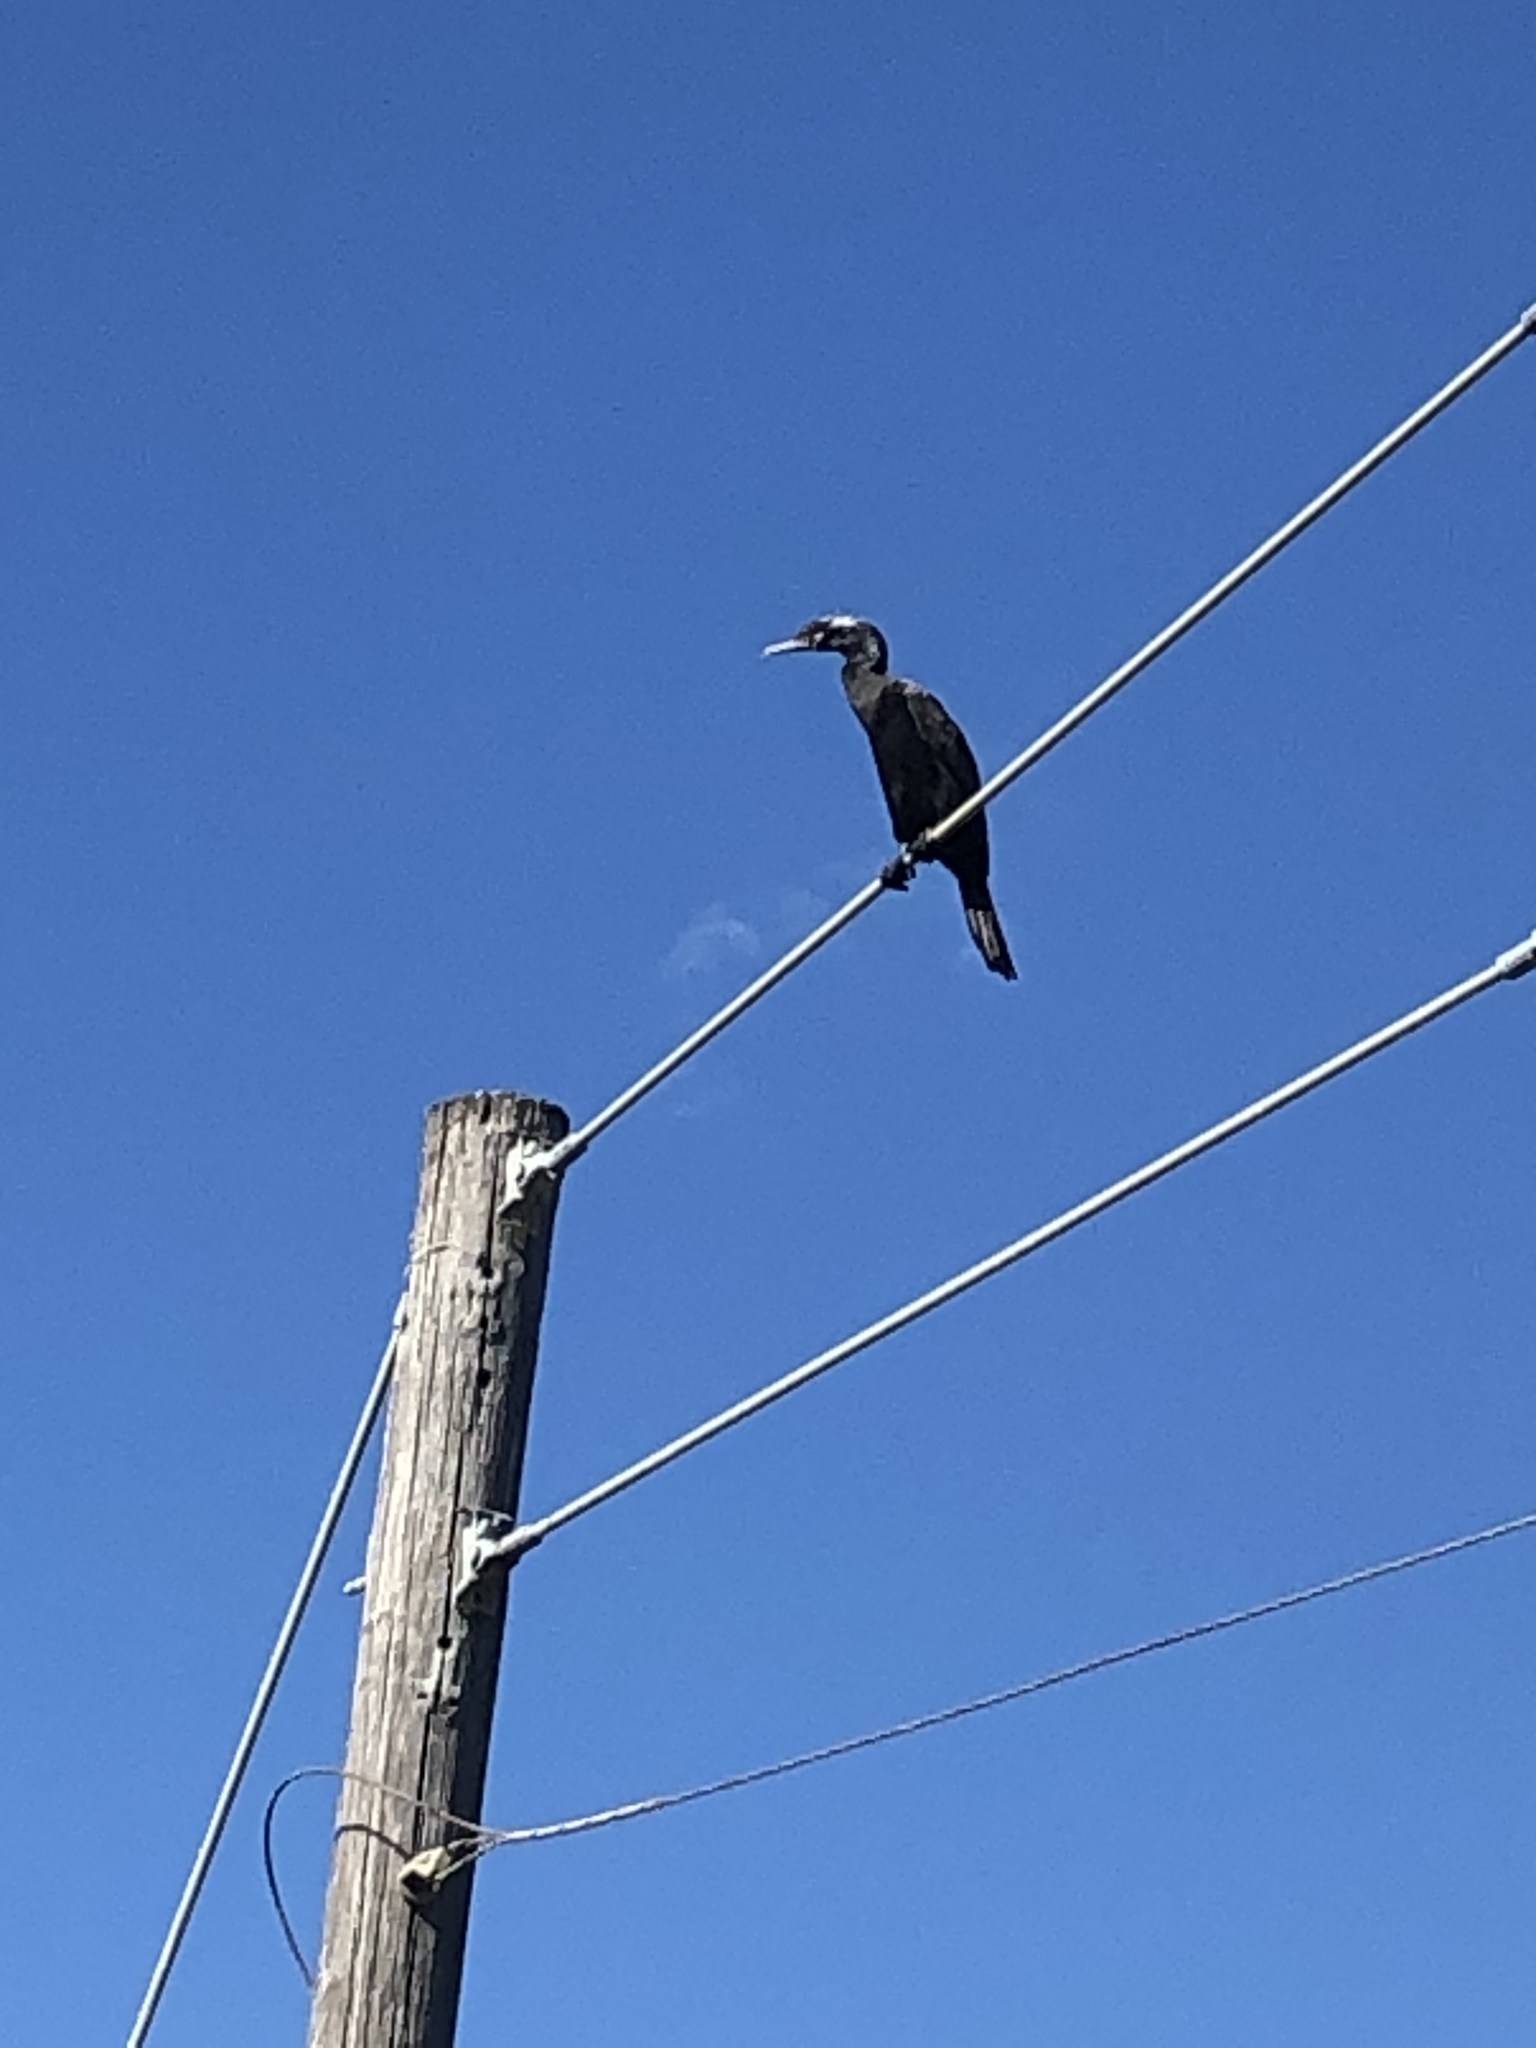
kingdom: Animalia
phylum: Chordata
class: Aves
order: Suliformes
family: Phalacrocoracidae
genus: Phalacrocorax
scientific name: Phalacrocorax brasilianus
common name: Neotropic cormorant
